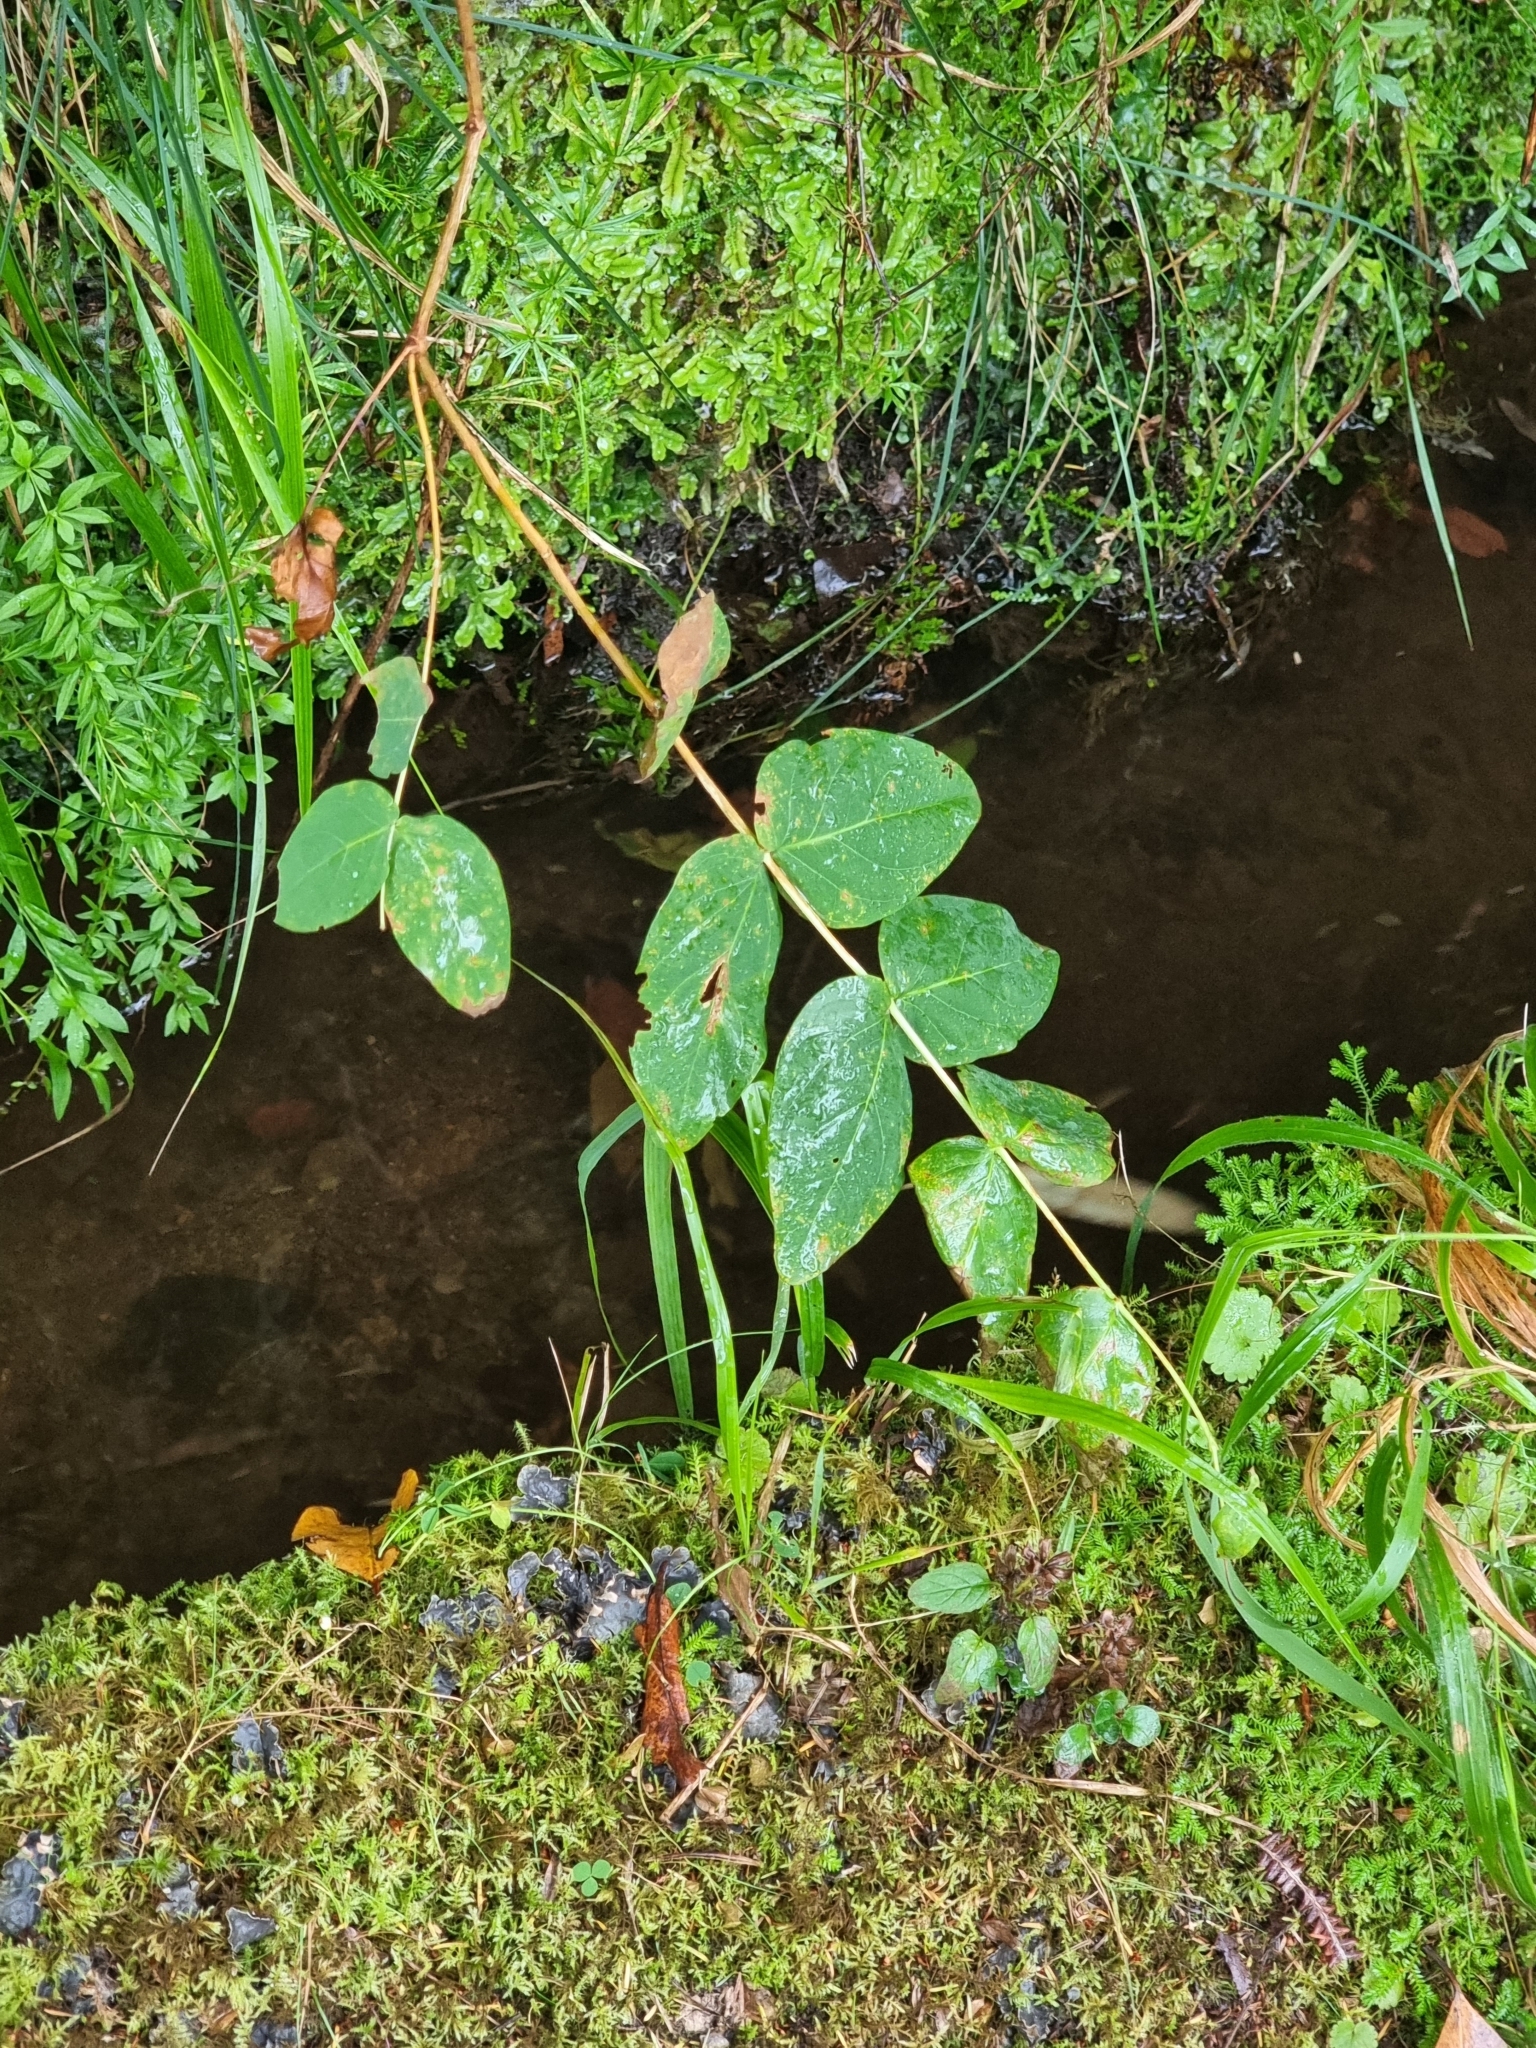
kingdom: Plantae
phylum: Tracheophyta
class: Magnoliopsida
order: Malpighiales
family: Hypericaceae
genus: Hypericum
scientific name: Hypericum grandifolium
